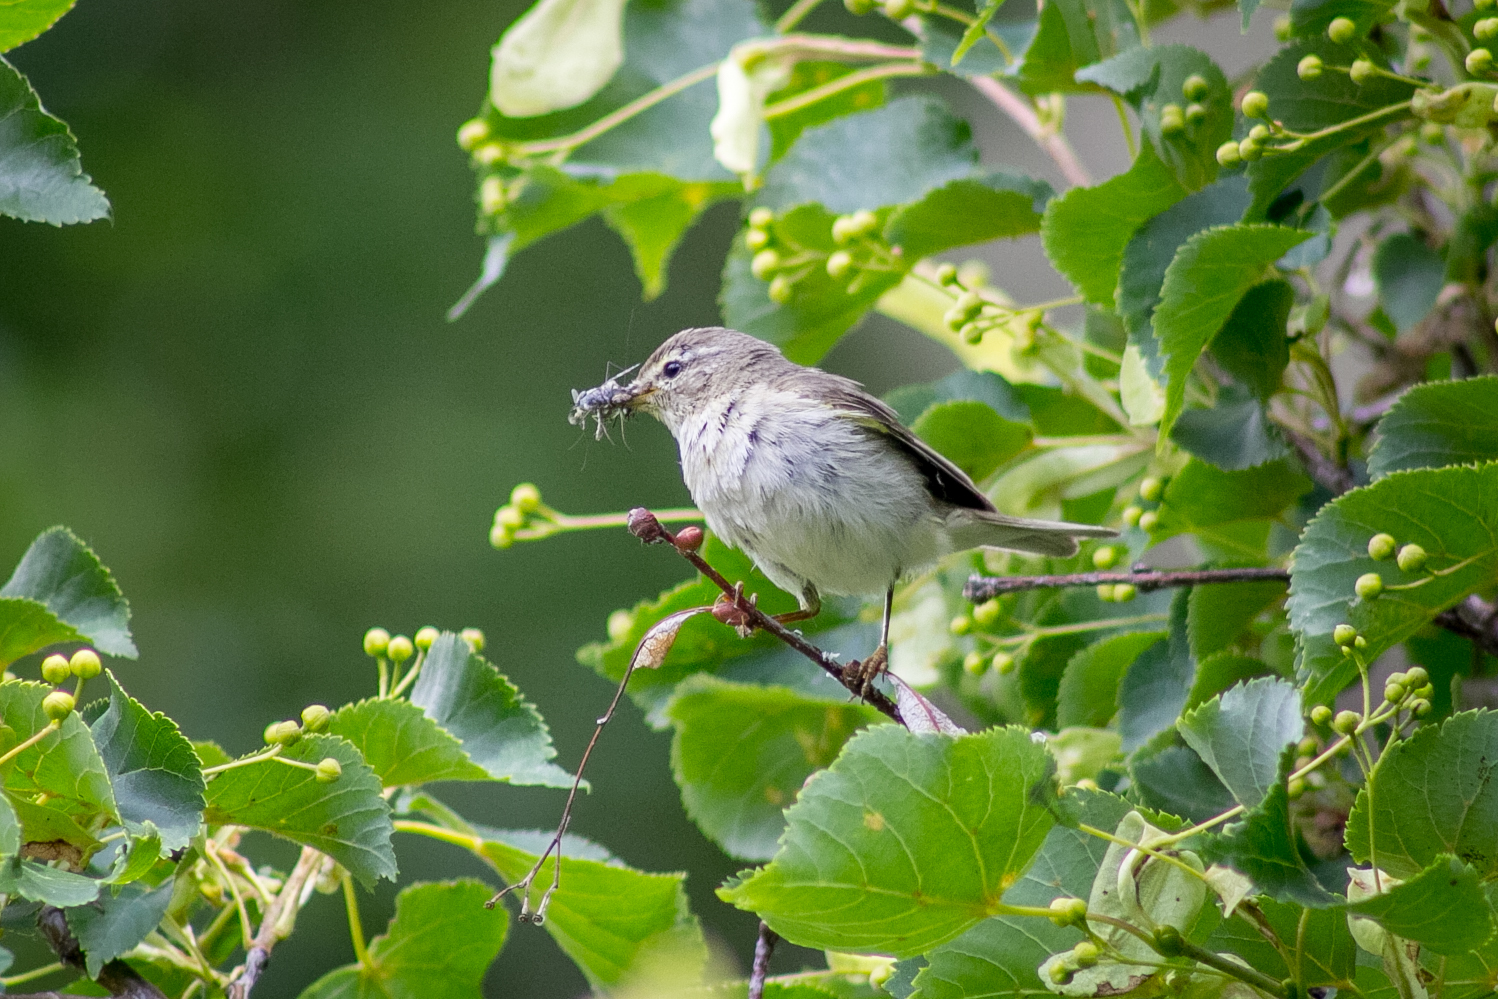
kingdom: Animalia
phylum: Chordata
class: Aves
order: Passeriformes
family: Phylloscopidae
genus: Phylloscopus
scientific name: Phylloscopus collybita
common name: Common chiffchaff
